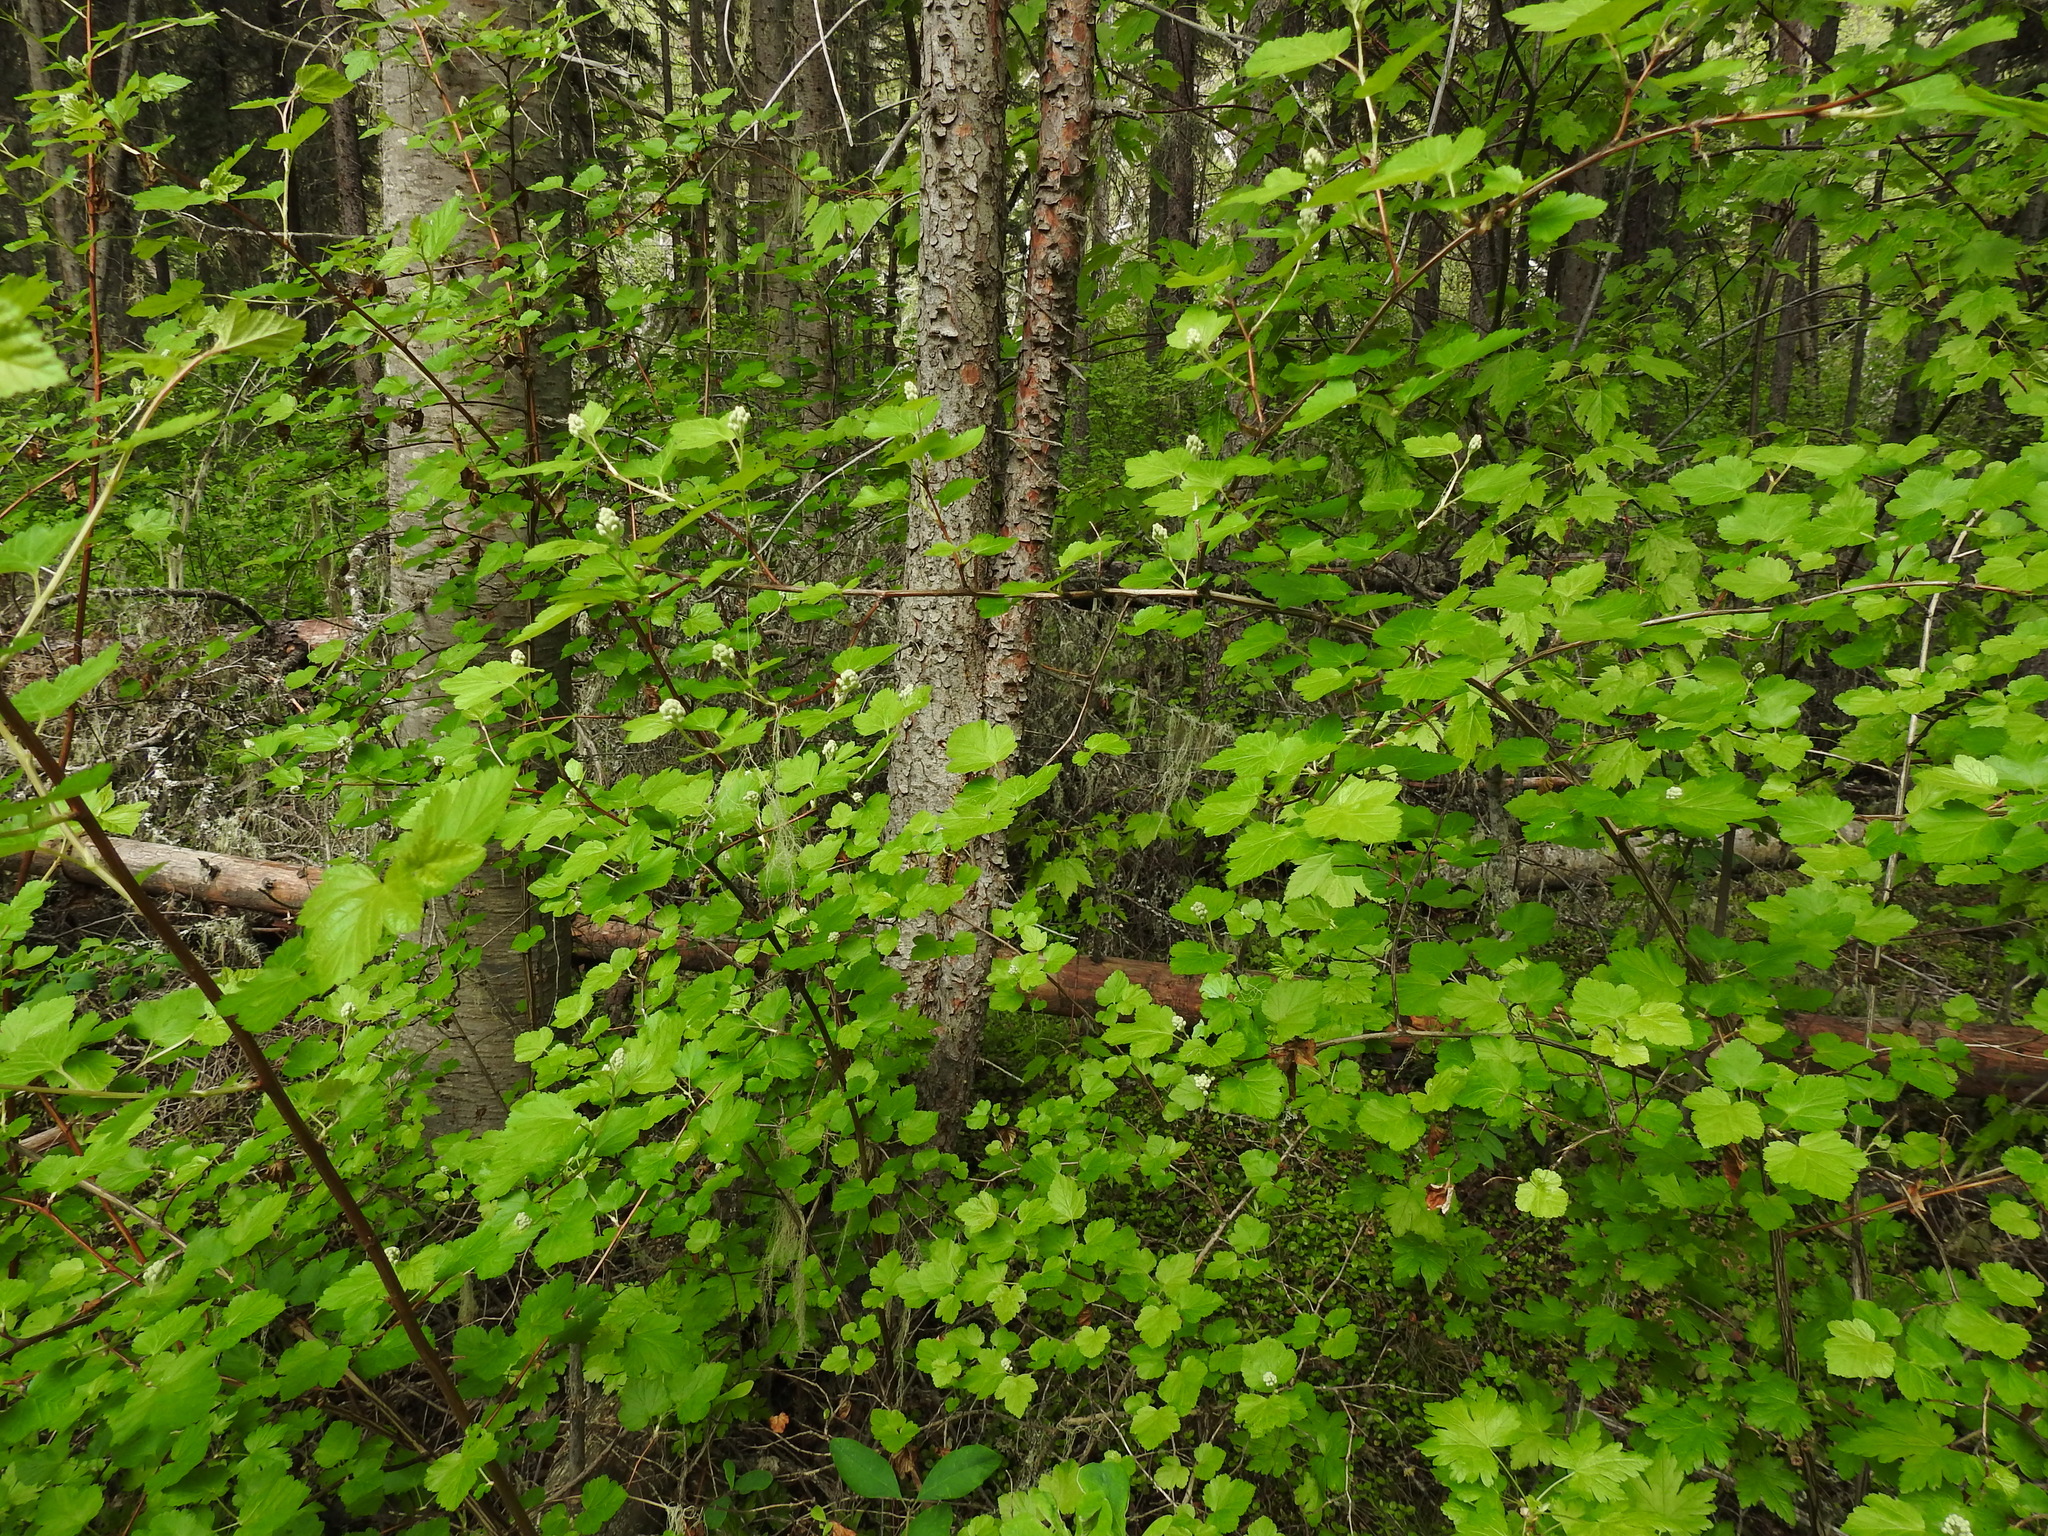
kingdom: Plantae
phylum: Tracheophyta
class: Magnoliopsida
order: Rosales
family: Rosaceae
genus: Physocarpus
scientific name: Physocarpus malvaceus
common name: Mallow ninebark
